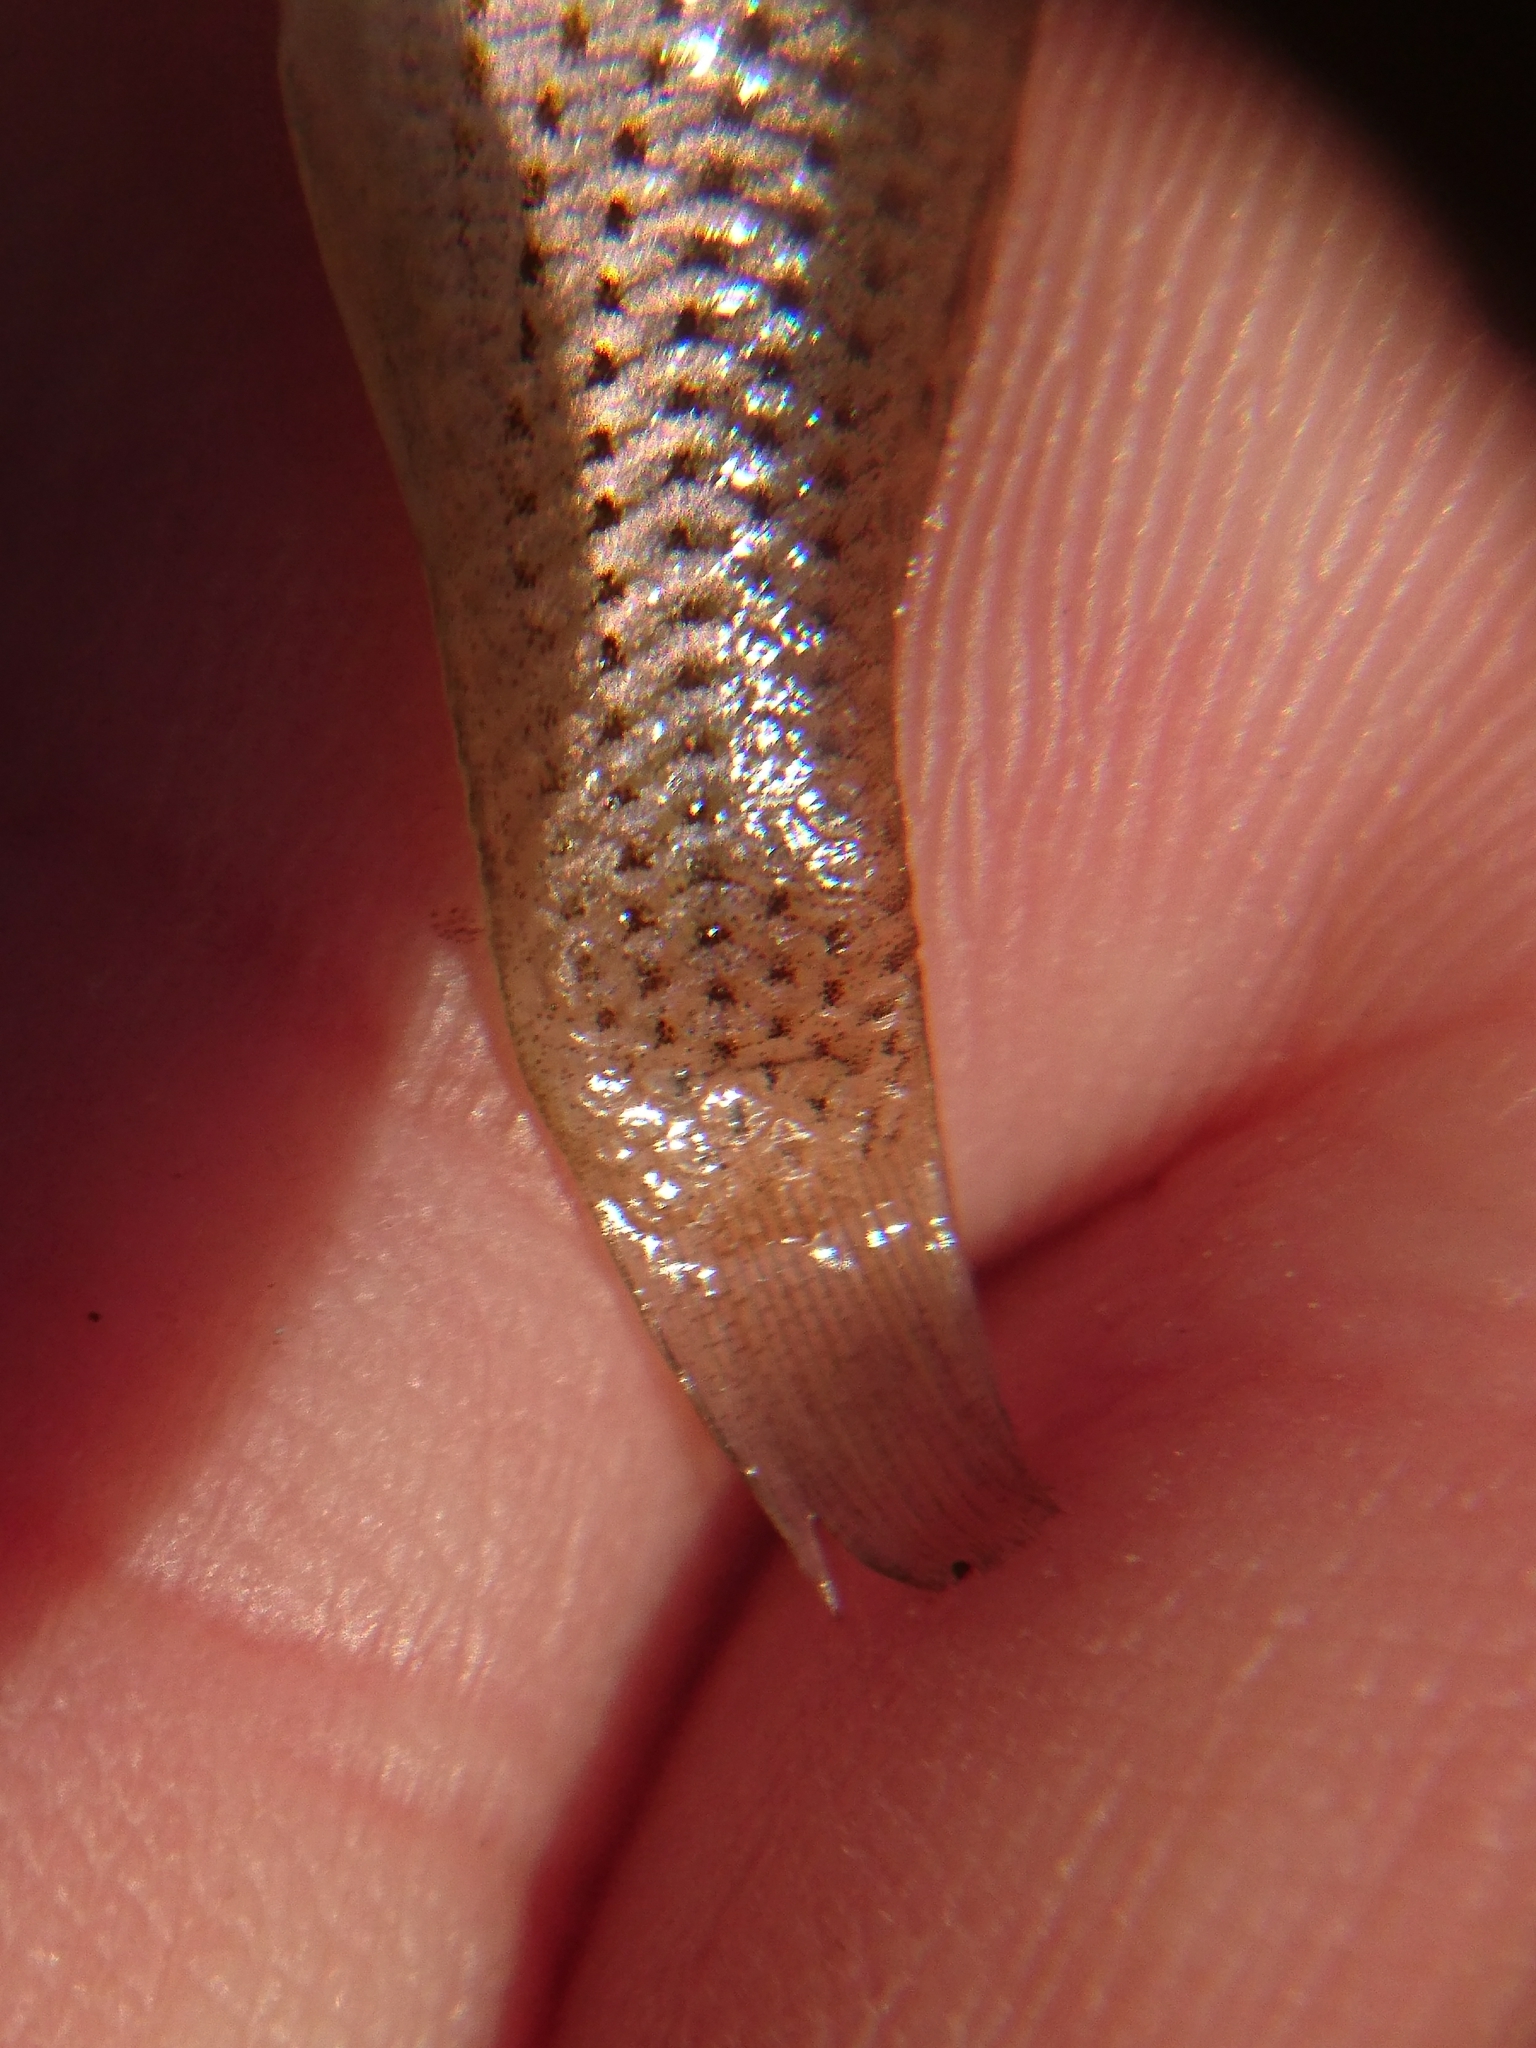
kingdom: Animalia
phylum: Chordata
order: Cyprinodontiformes
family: Poeciliidae
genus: Poecilia
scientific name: Poecilia latipinna
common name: Sailfin molly
